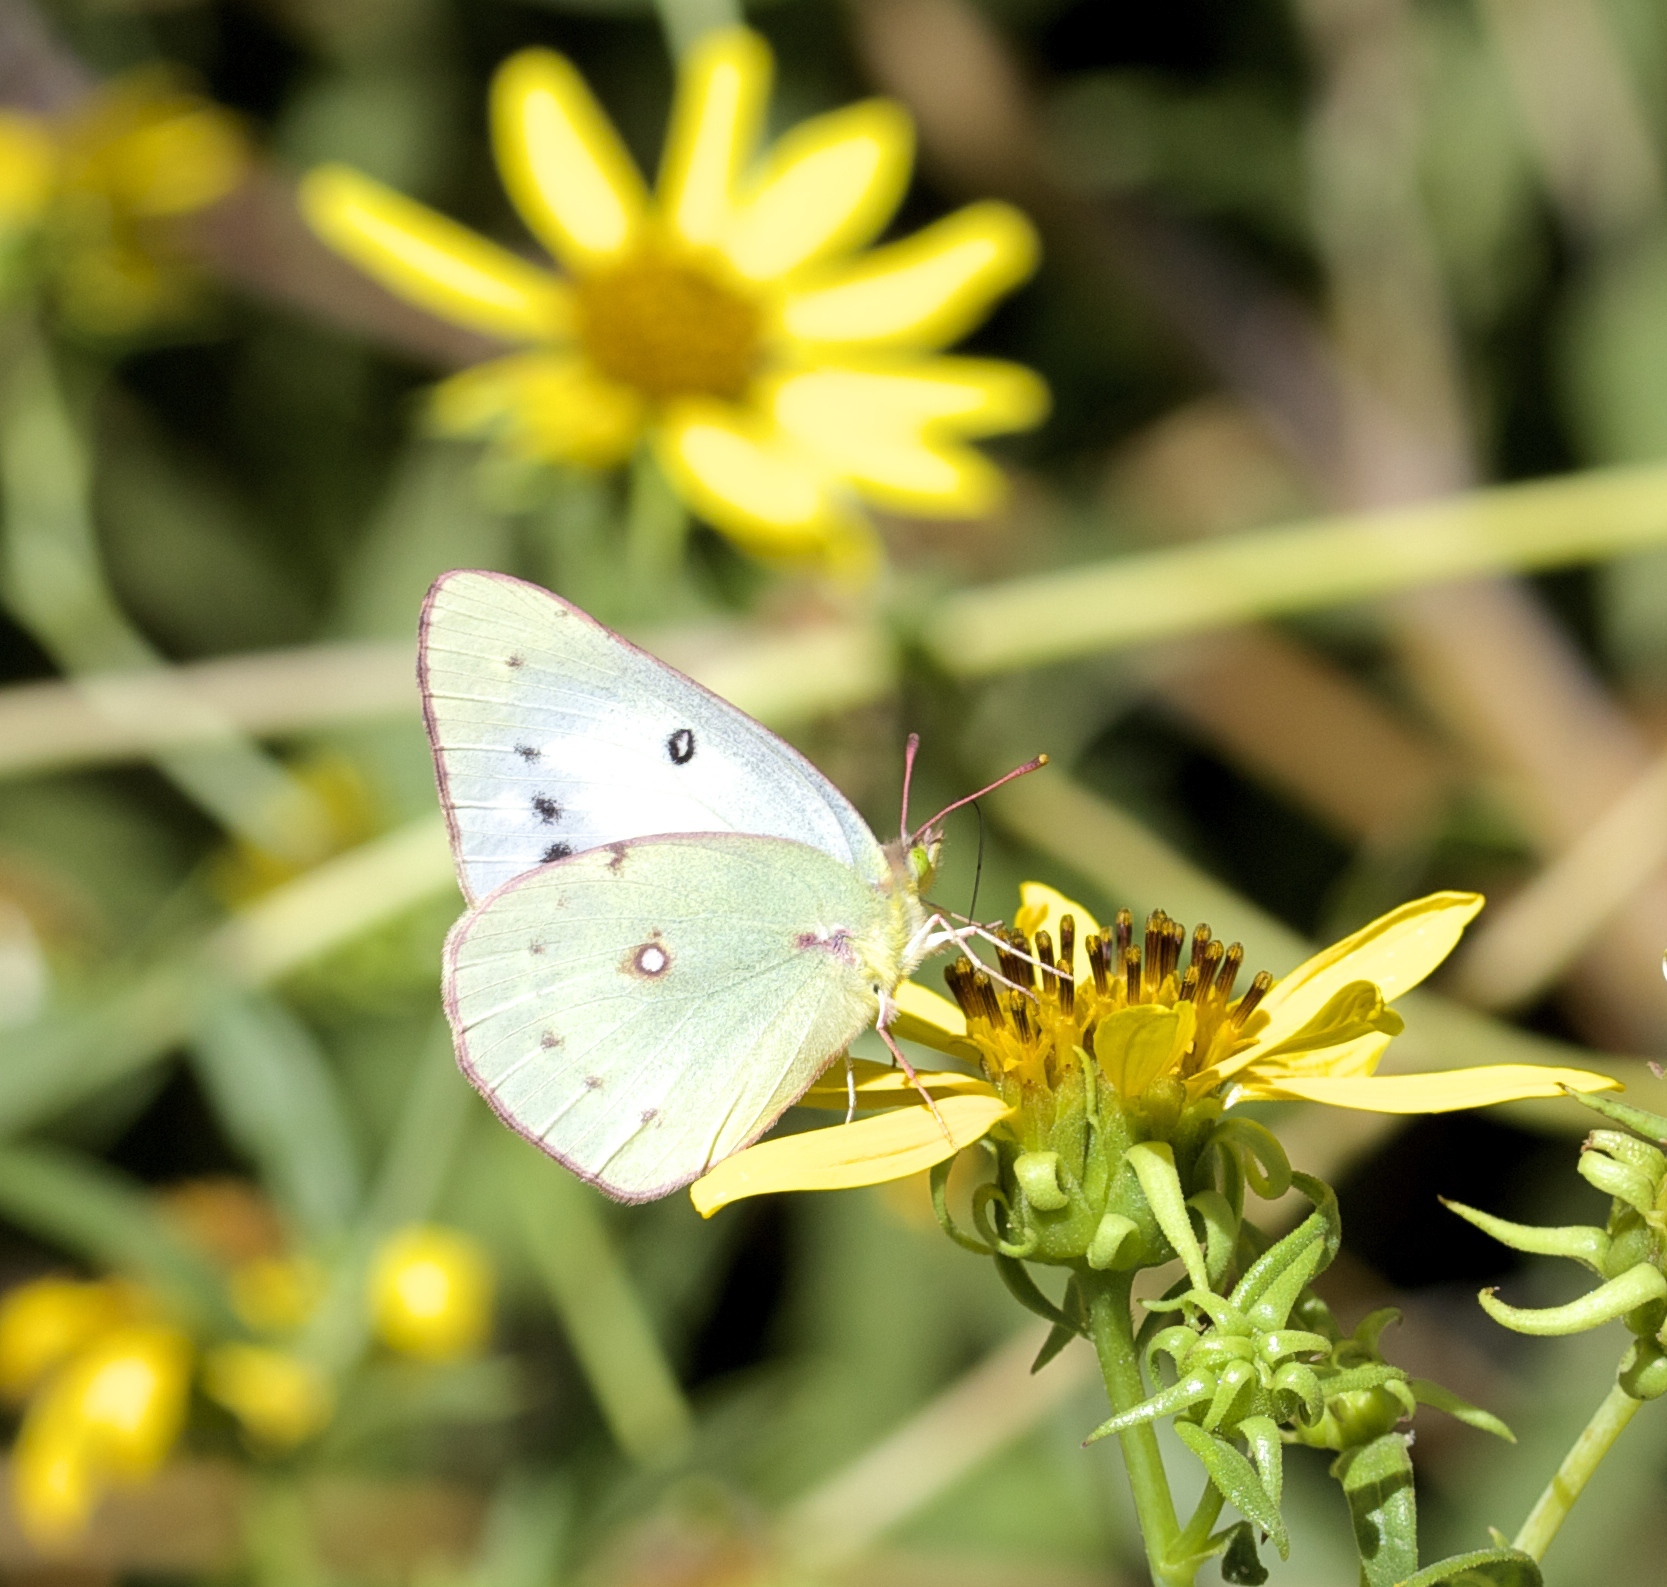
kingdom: Animalia
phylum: Arthropoda
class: Insecta
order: Lepidoptera
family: Pieridae
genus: Colias
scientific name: Colias eurytheme
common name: Alfalfa butterfly
